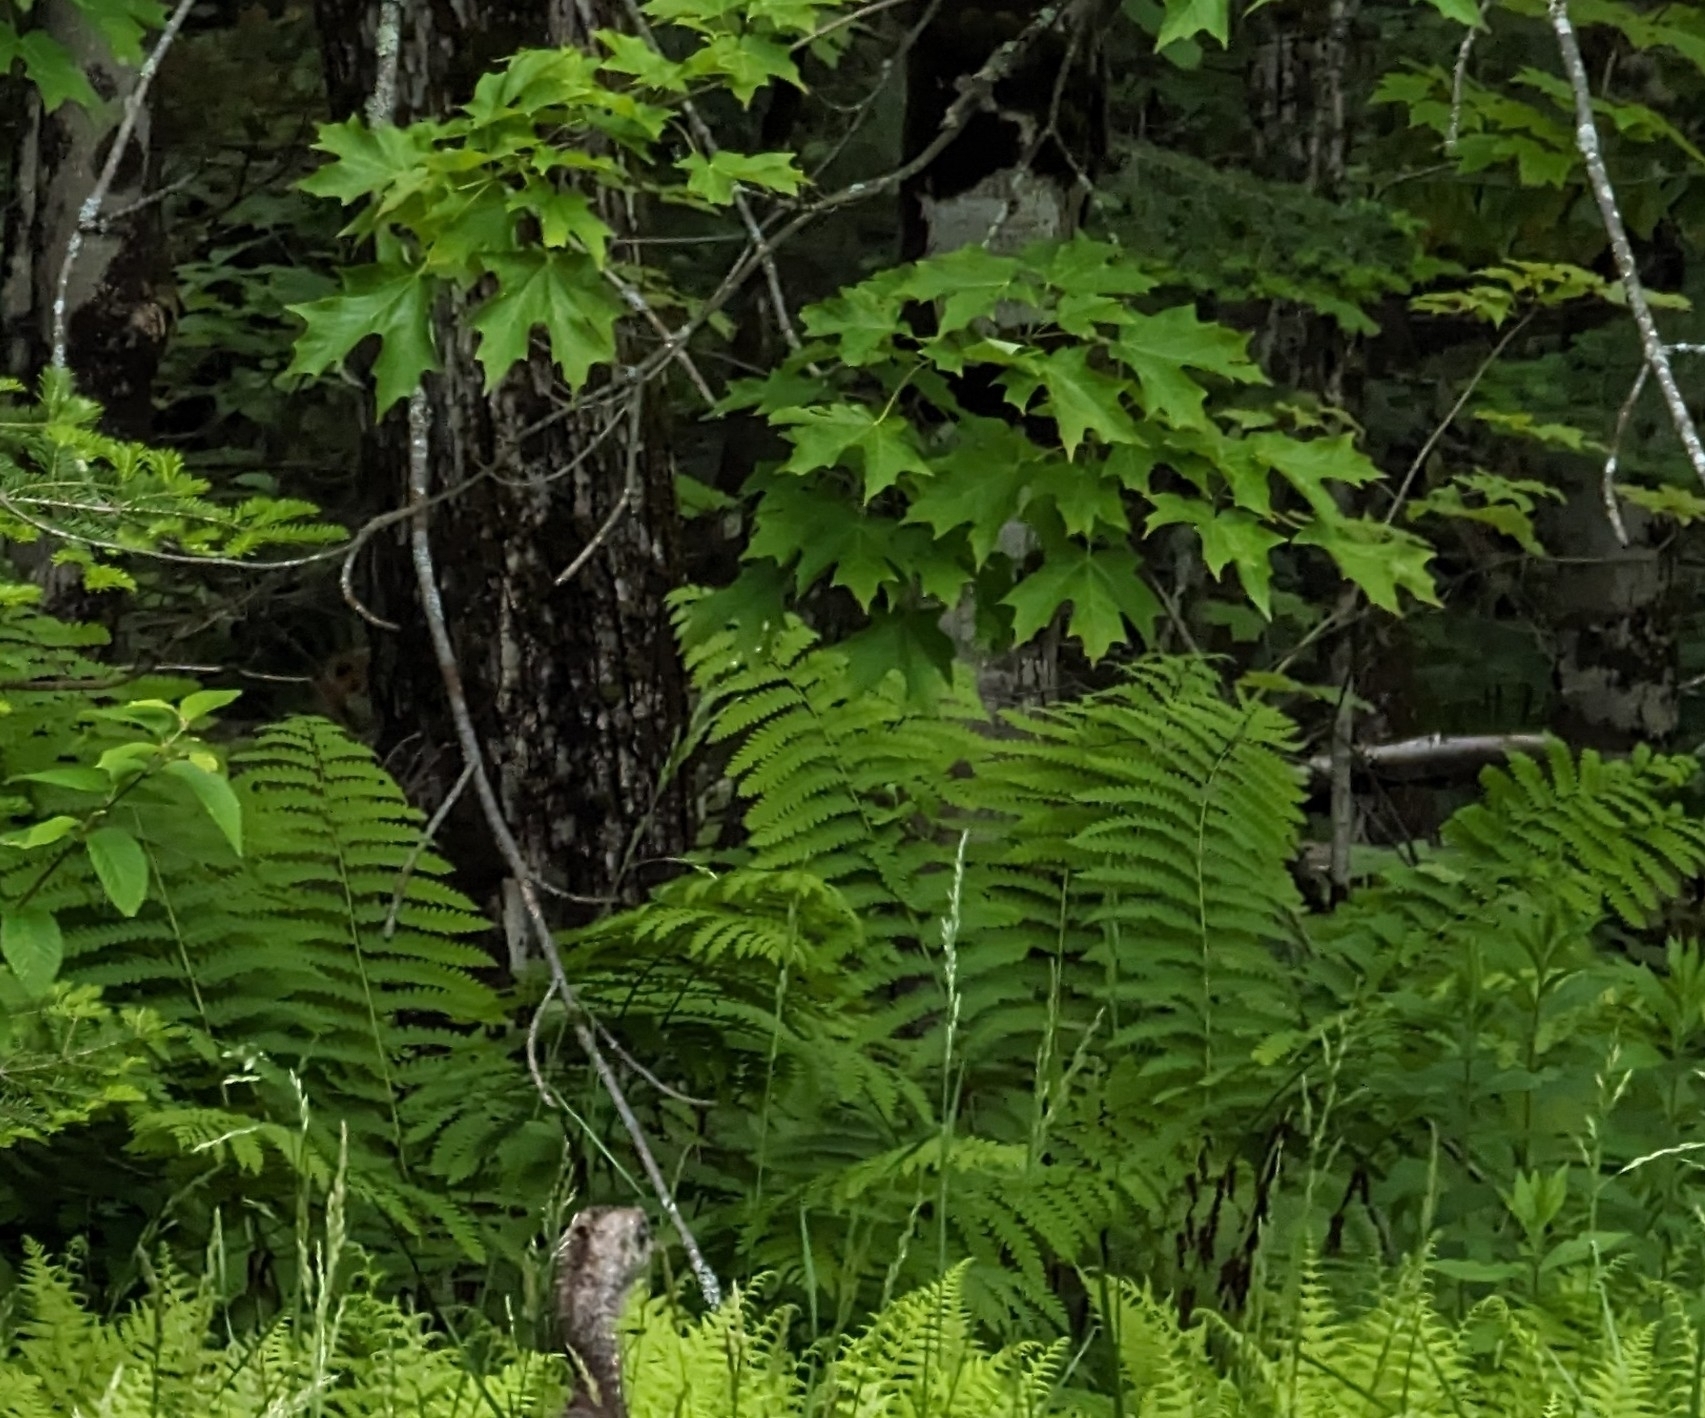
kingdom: Plantae
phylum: Tracheophyta
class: Magnoliopsida
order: Sapindales
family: Sapindaceae
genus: Acer
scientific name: Acer saccharum
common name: Sugar maple
